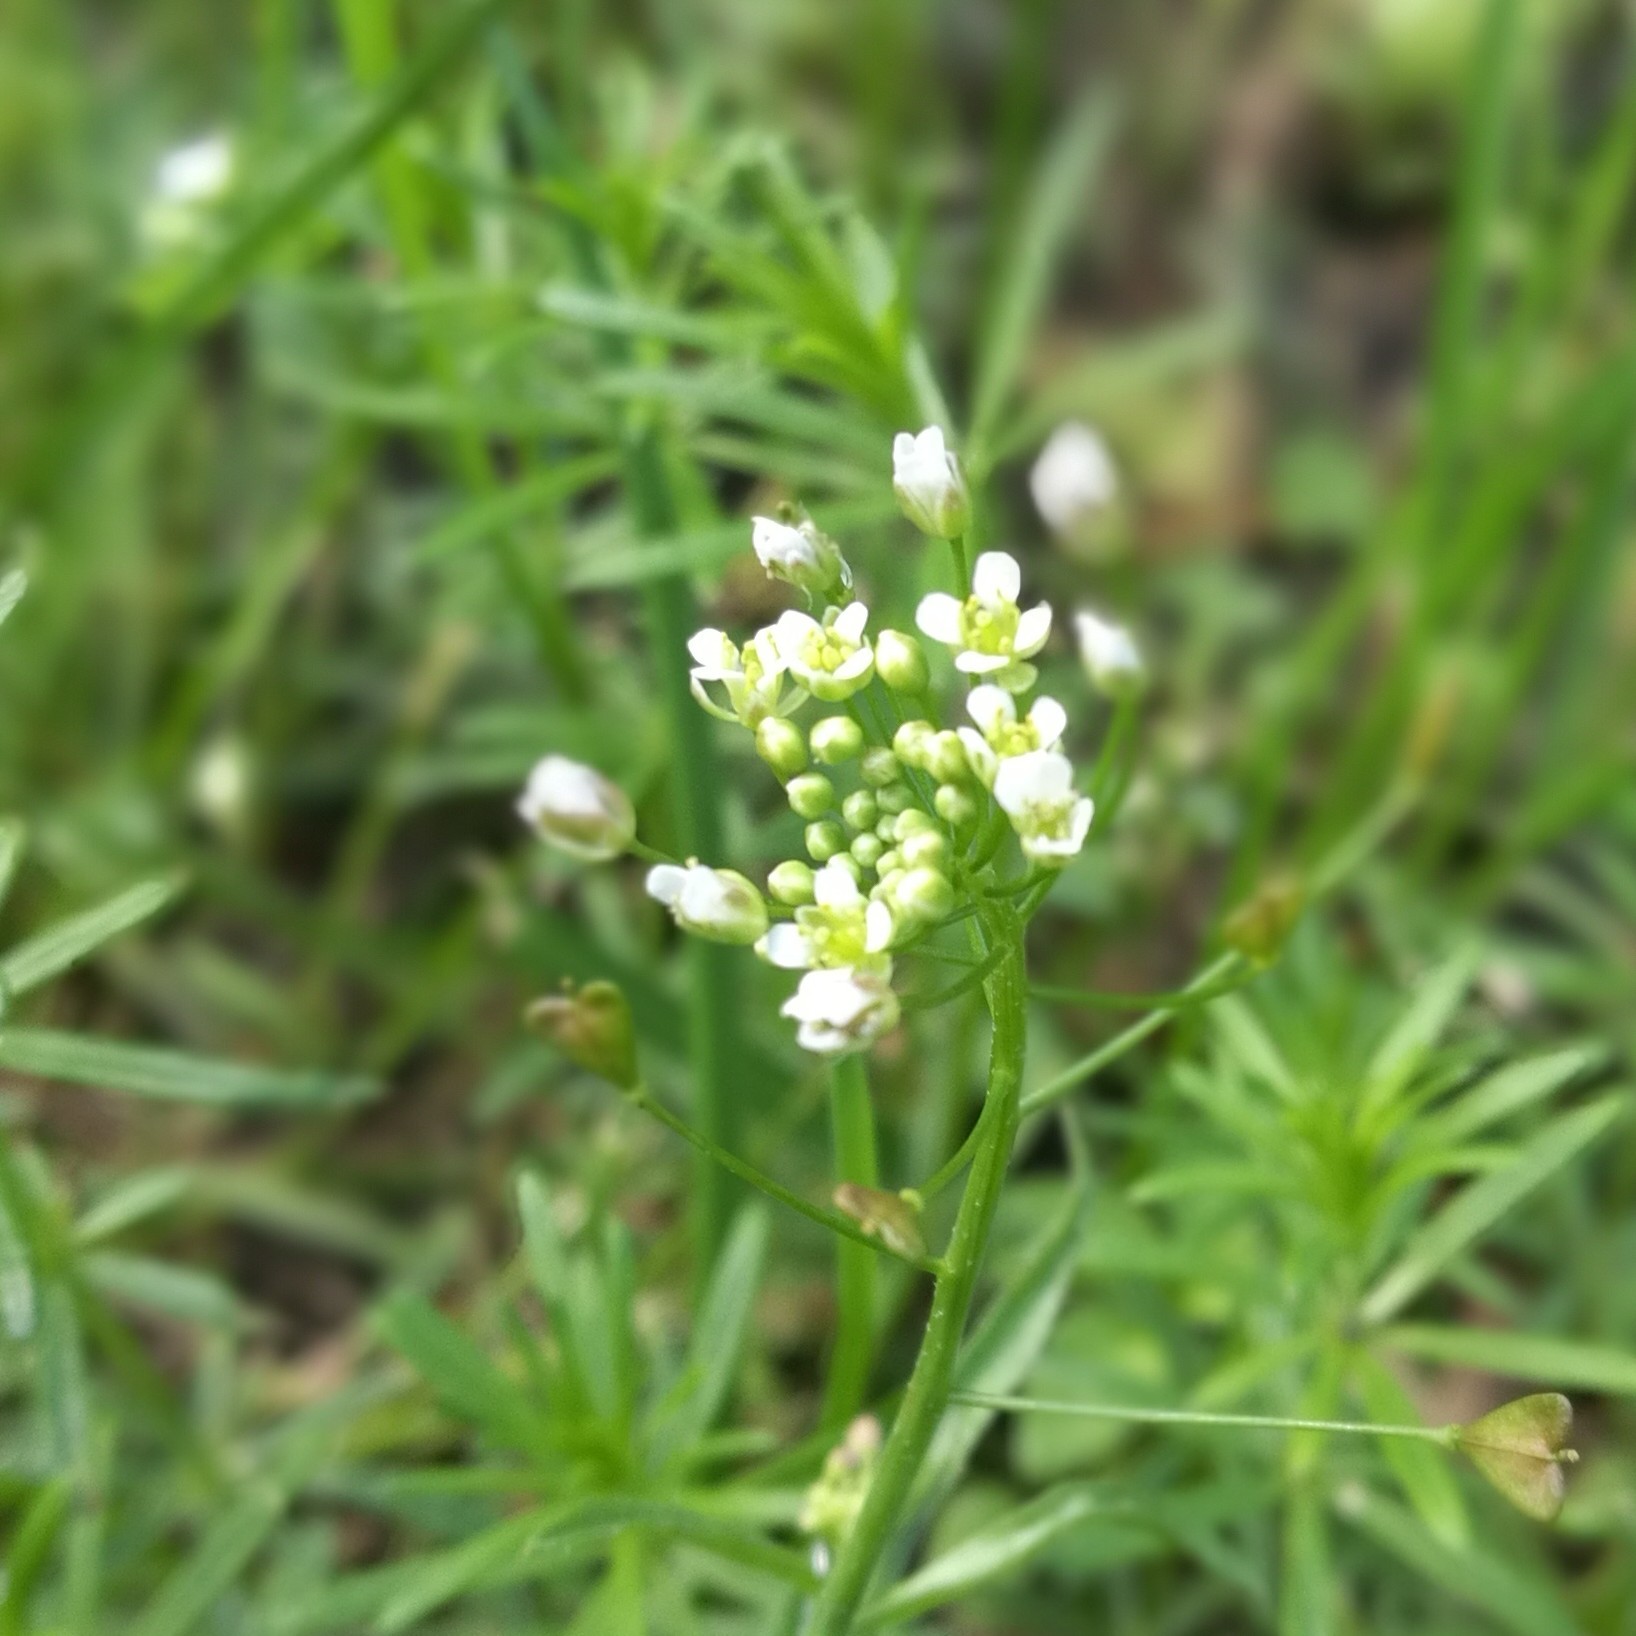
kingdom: Plantae
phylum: Tracheophyta
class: Magnoliopsida
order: Brassicales
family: Brassicaceae
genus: Capsella
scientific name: Capsella bursa-pastoris
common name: Shepherd's purse
